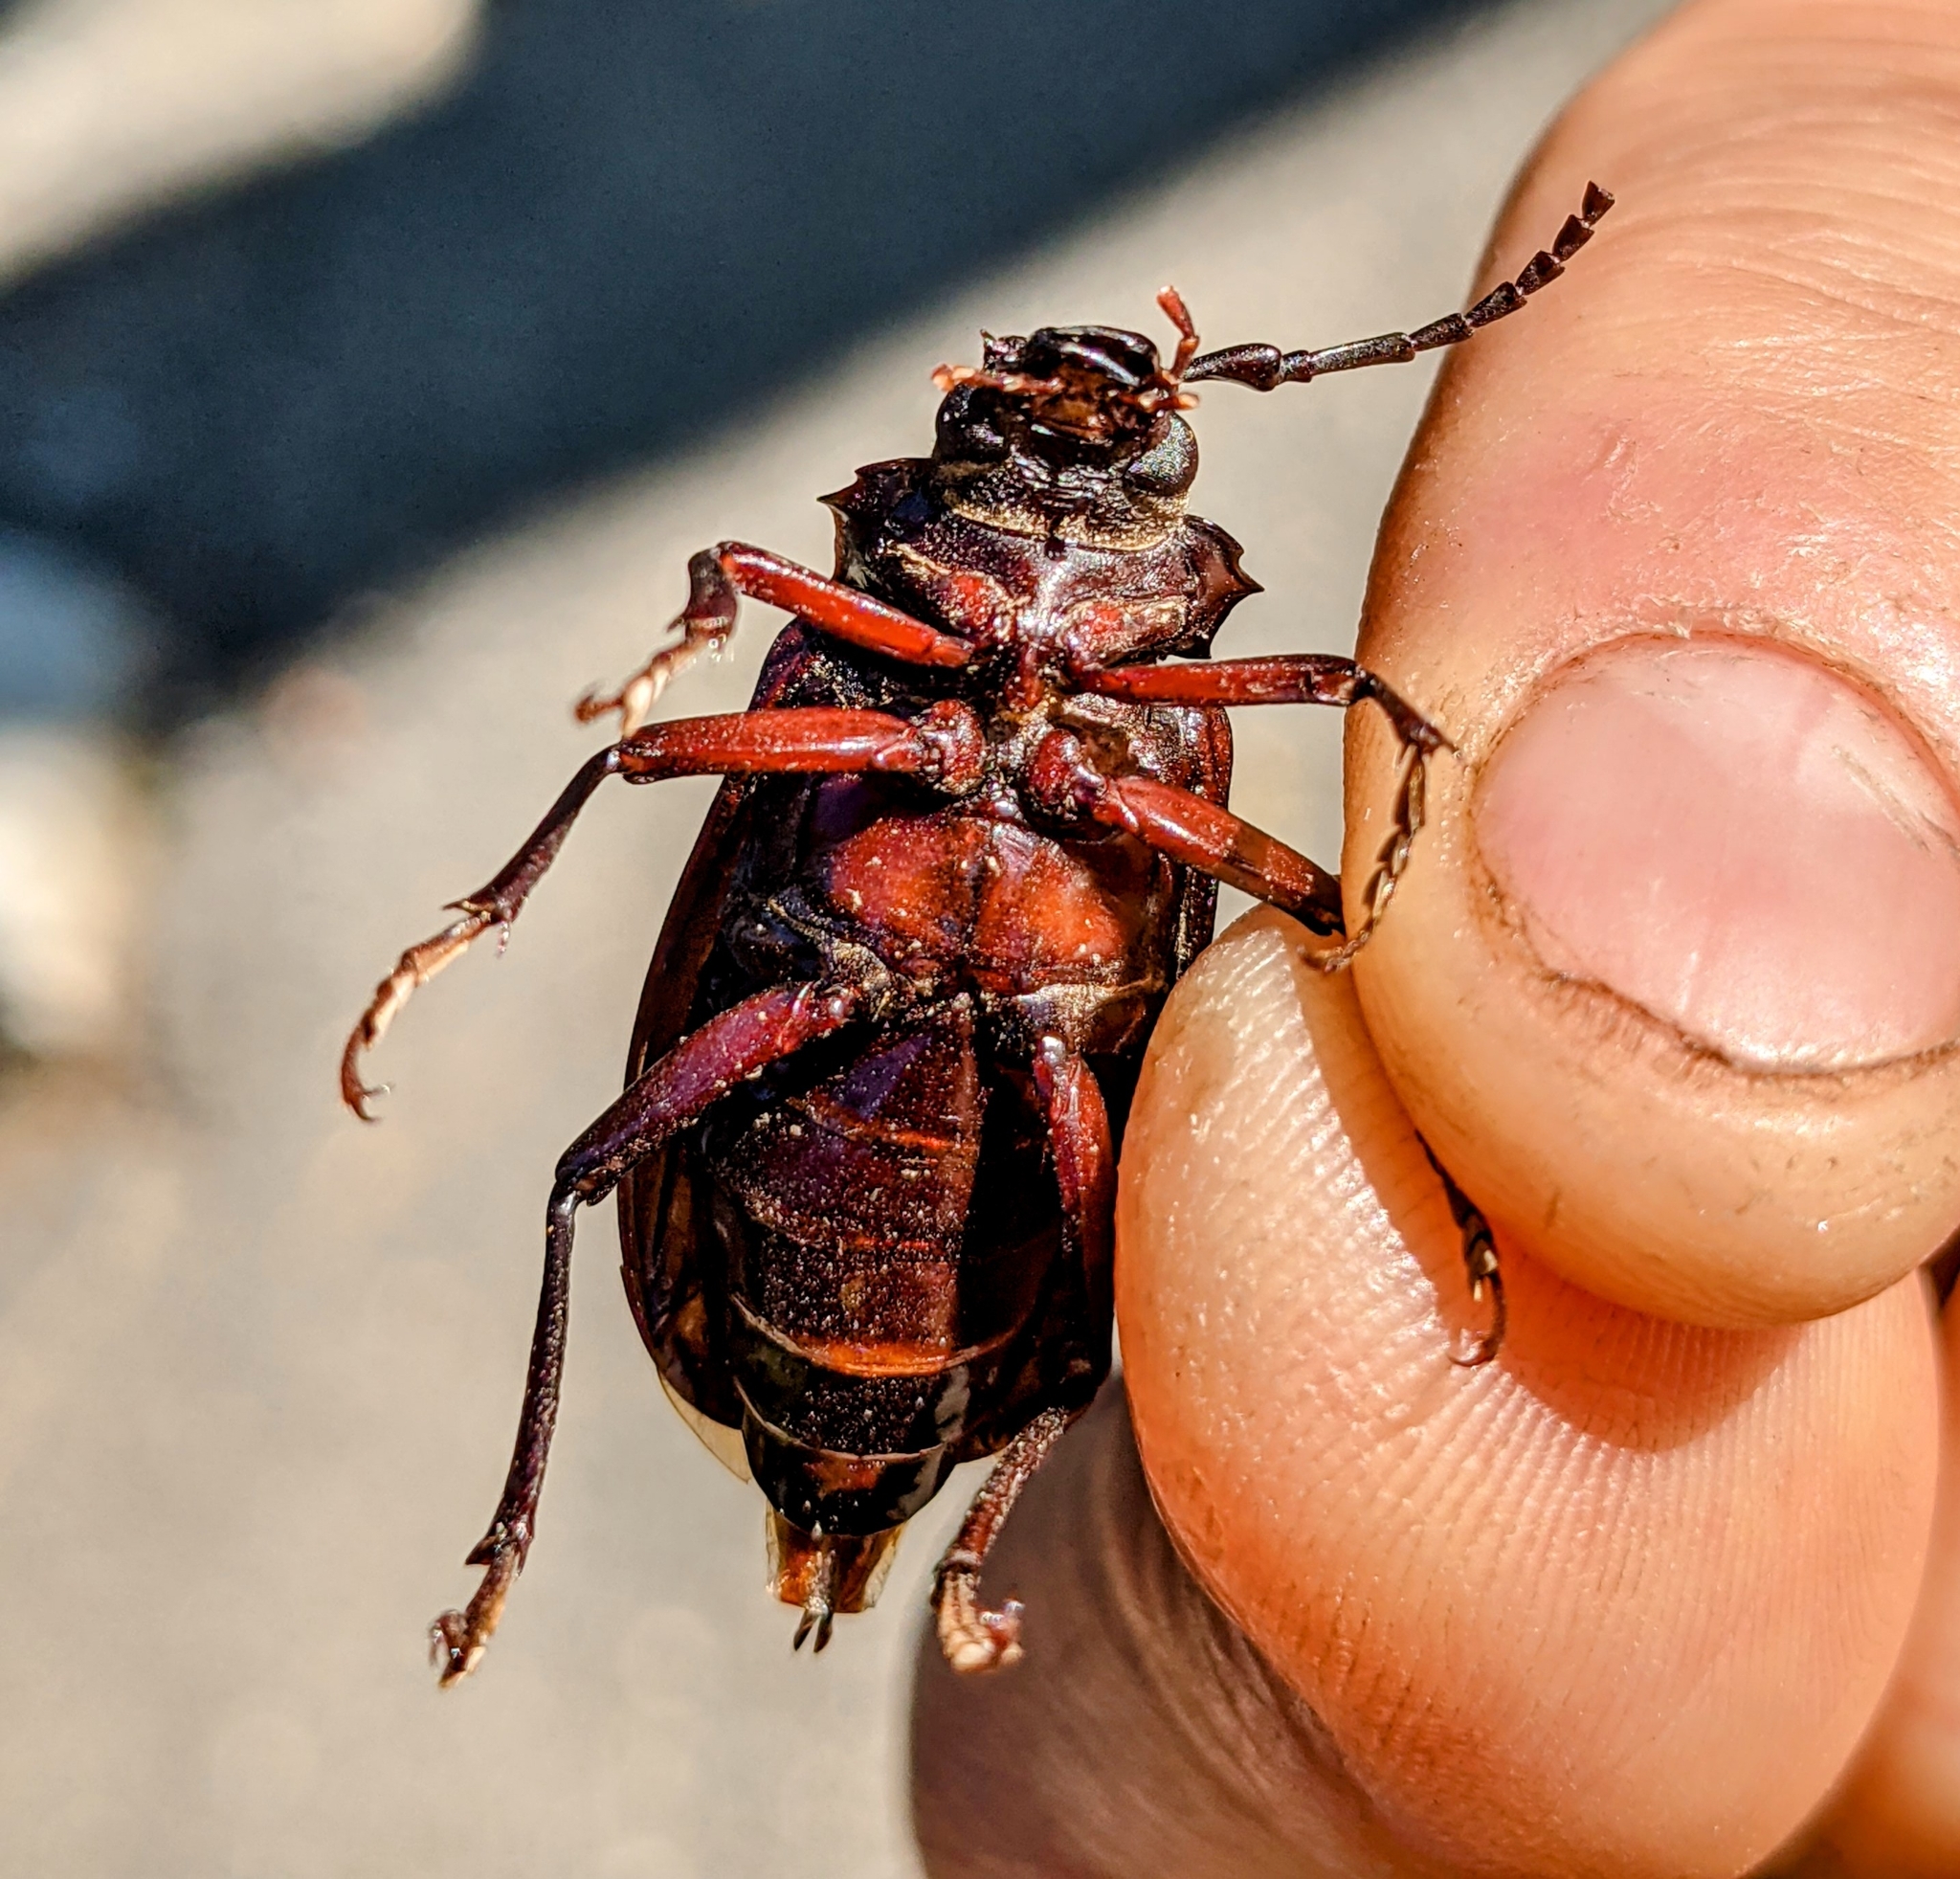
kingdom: Animalia
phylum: Arthropoda
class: Insecta
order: Coleoptera
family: Cerambycidae
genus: Prionus
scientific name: Prionus laticollis
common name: Broad necked prionus
